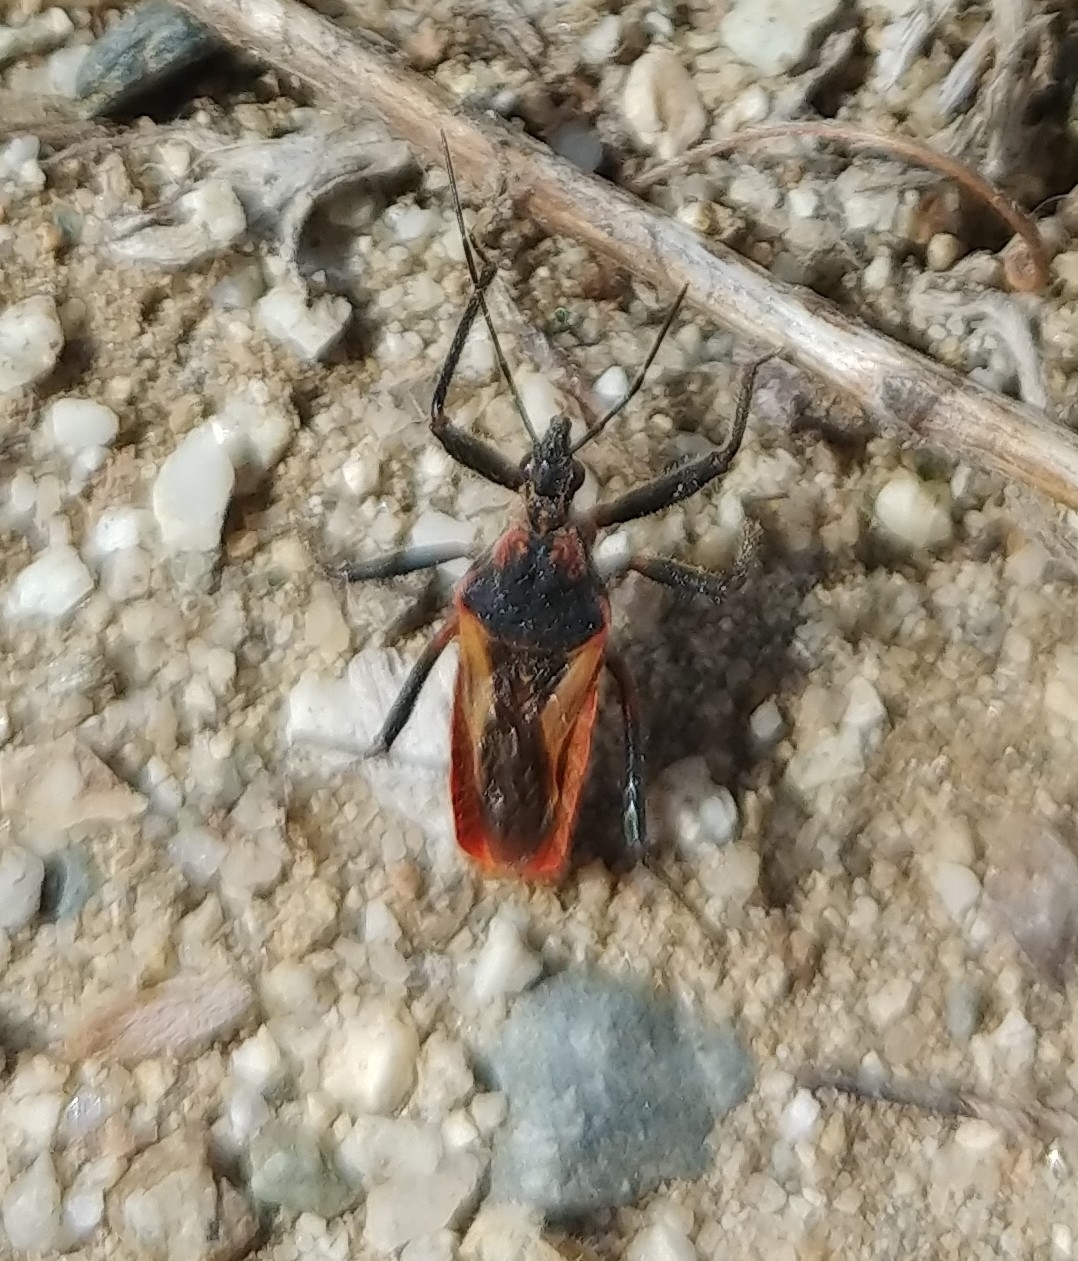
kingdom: Animalia
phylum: Arthropoda
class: Insecta
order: Hemiptera
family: Reduviidae
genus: Rhynocoris
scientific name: Rhynocoris ventralis
